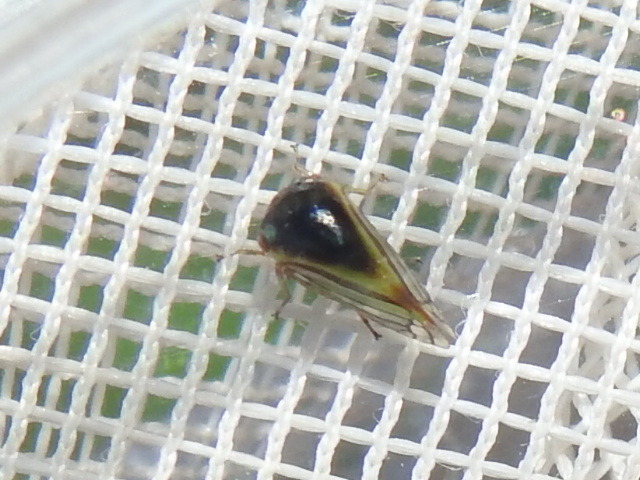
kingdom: Animalia
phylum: Arthropoda
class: Insecta
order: Hemiptera
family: Membracidae
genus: Acutalis
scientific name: Acutalis tartarea
